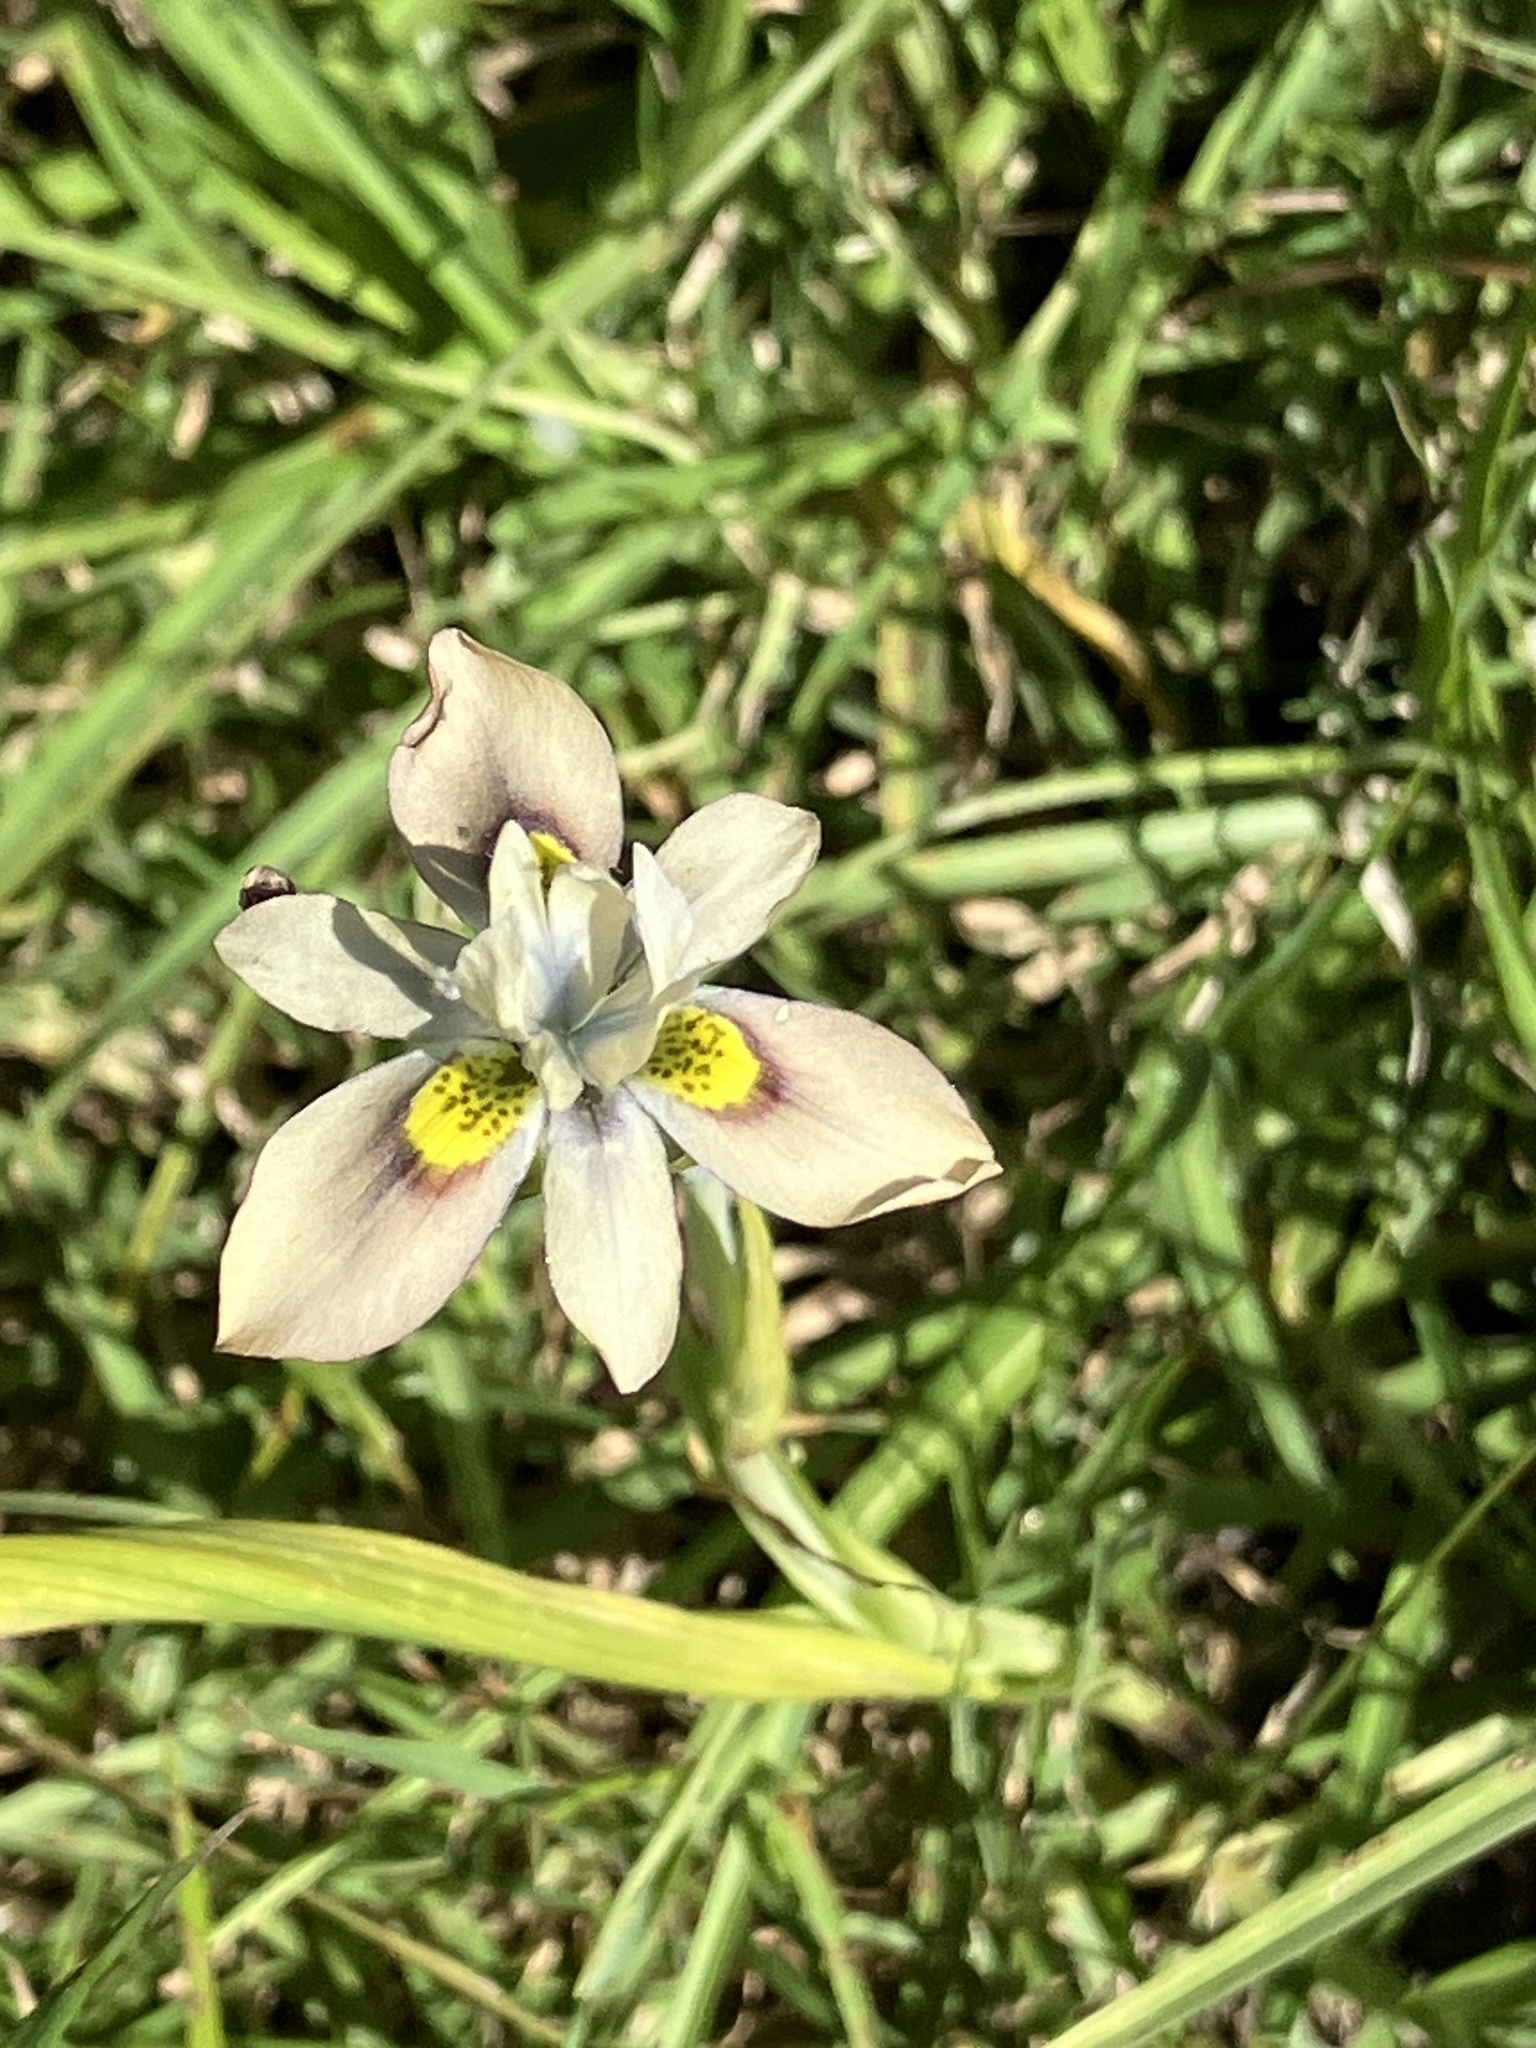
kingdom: Plantae
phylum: Tracheophyta
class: Liliopsida
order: Asparagales
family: Iridaceae
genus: Moraea
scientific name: Moraea vegeta
